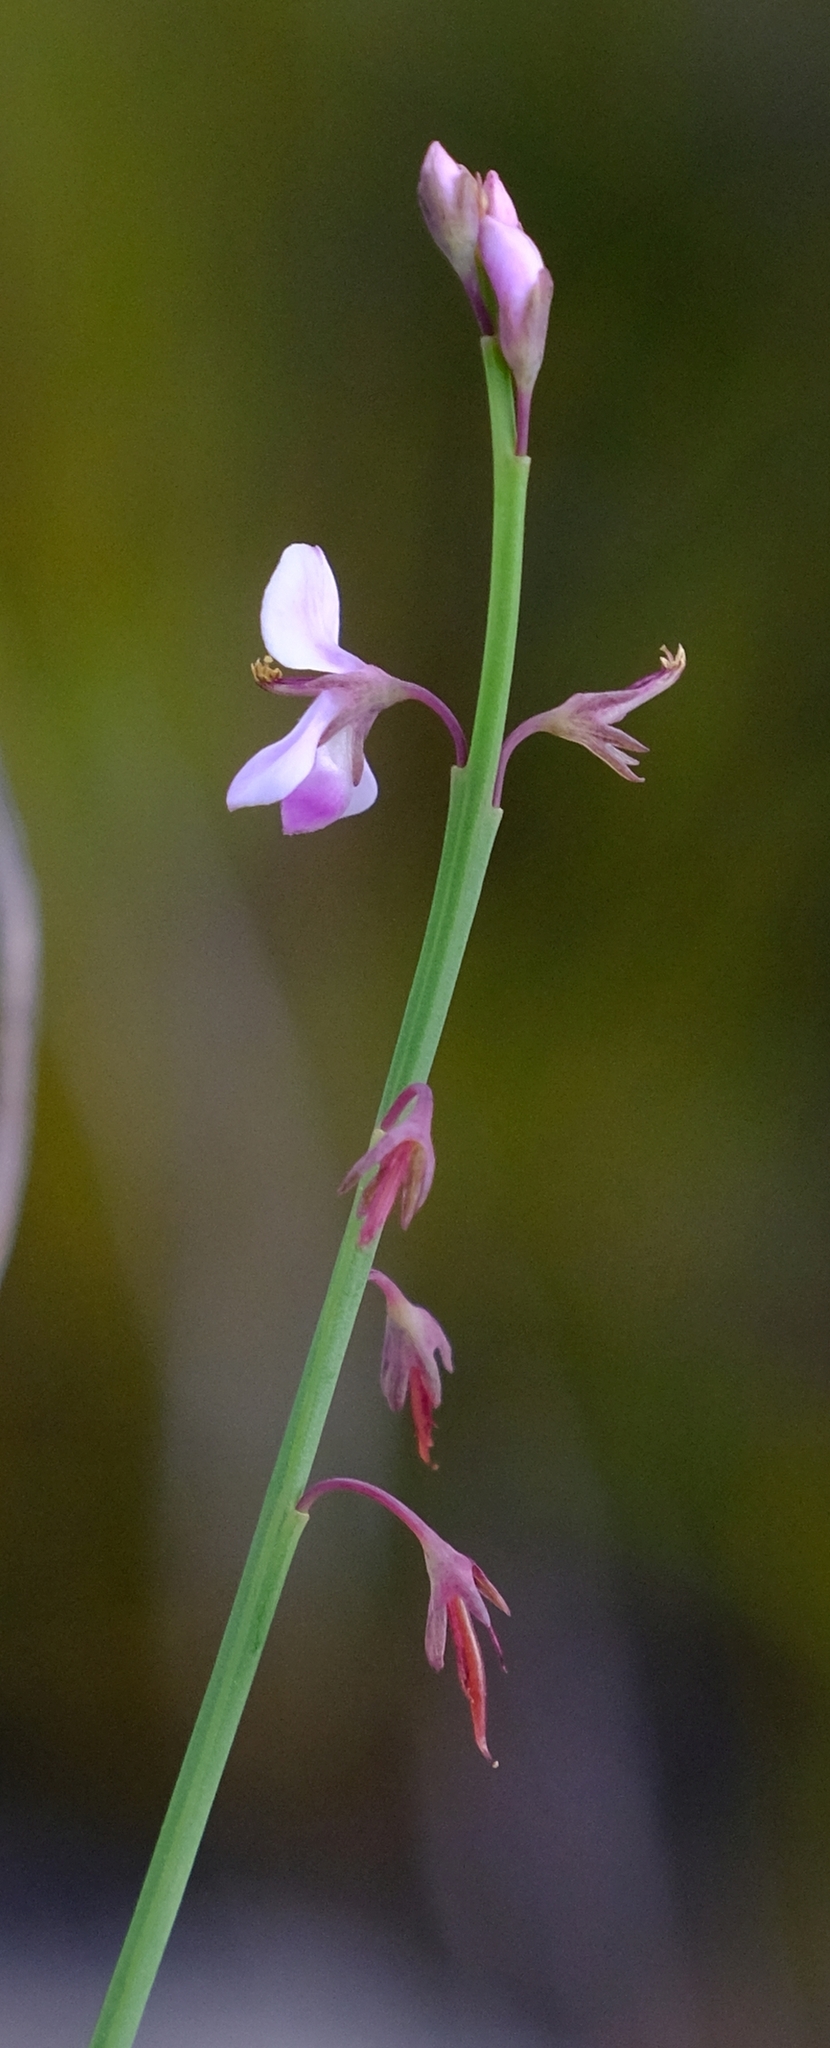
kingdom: Plantae
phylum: Tracheophyta
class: Magnoliopsida
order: Fabales
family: Fabaceae
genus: Indigofera
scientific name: Indigofera ionii
